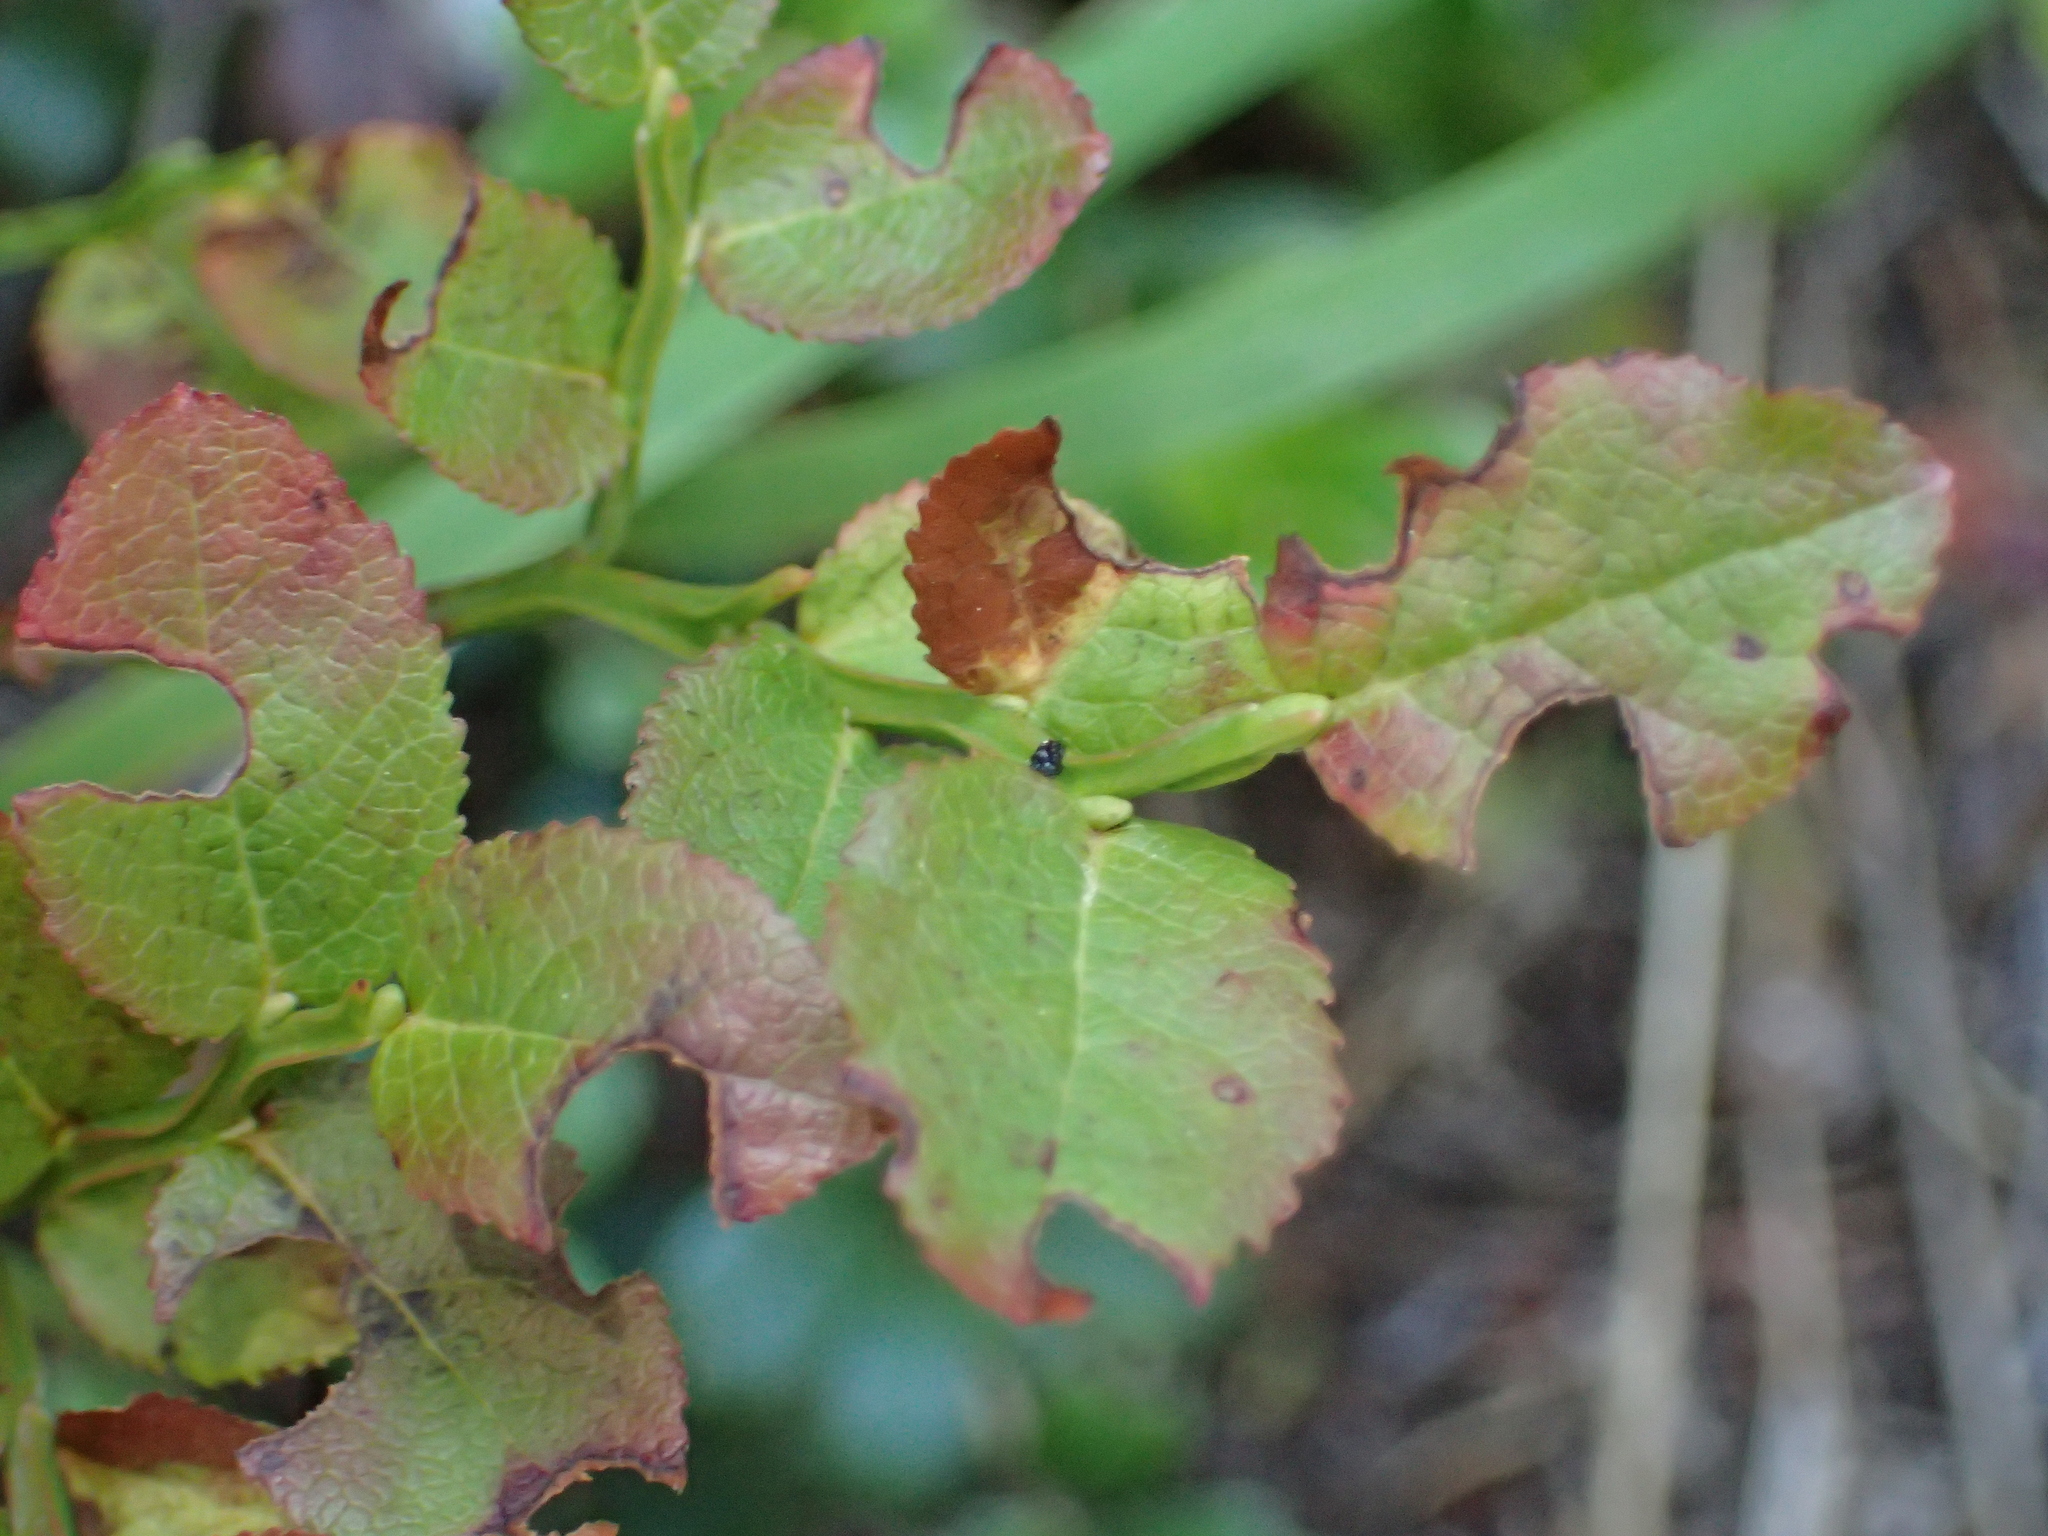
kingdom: Plantae
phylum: Tracheophyta
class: Magnoliopsida
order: Ericales
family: Ericaceae
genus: Vaccinium
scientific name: Vaccinium myrtillus
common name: Bilberry
